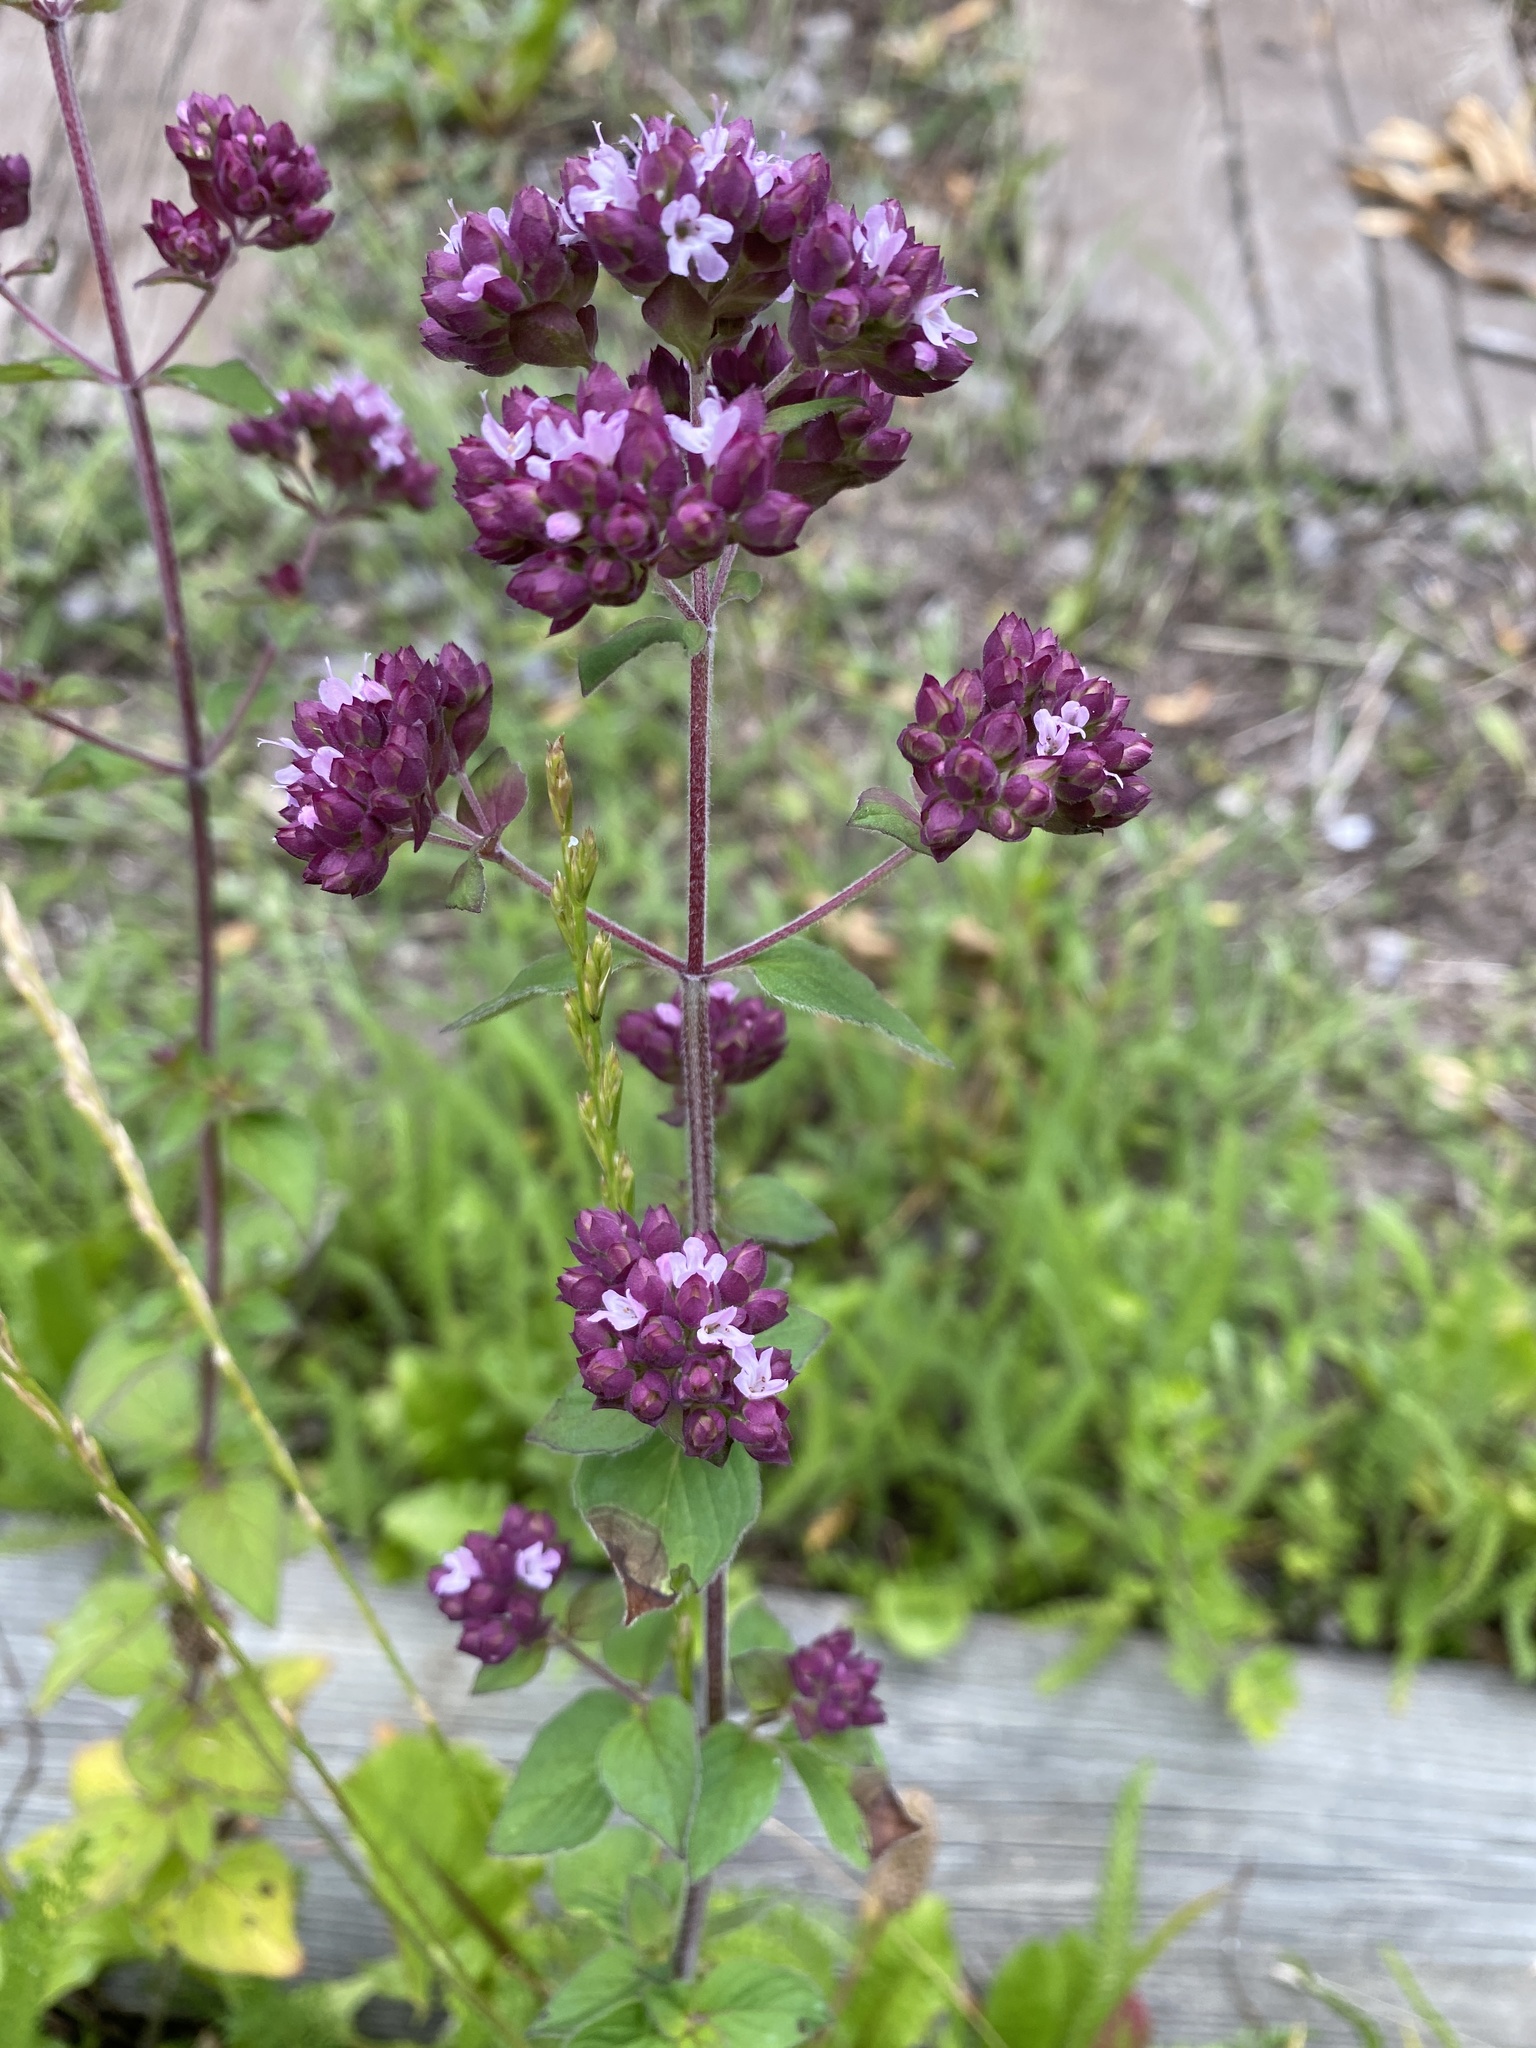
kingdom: Plantae
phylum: Tracheophyta
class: Magnoliopsida
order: Lamiales
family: Lamiaceae
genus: Origanum
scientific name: Origanum vulgare
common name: Wild marjoram
